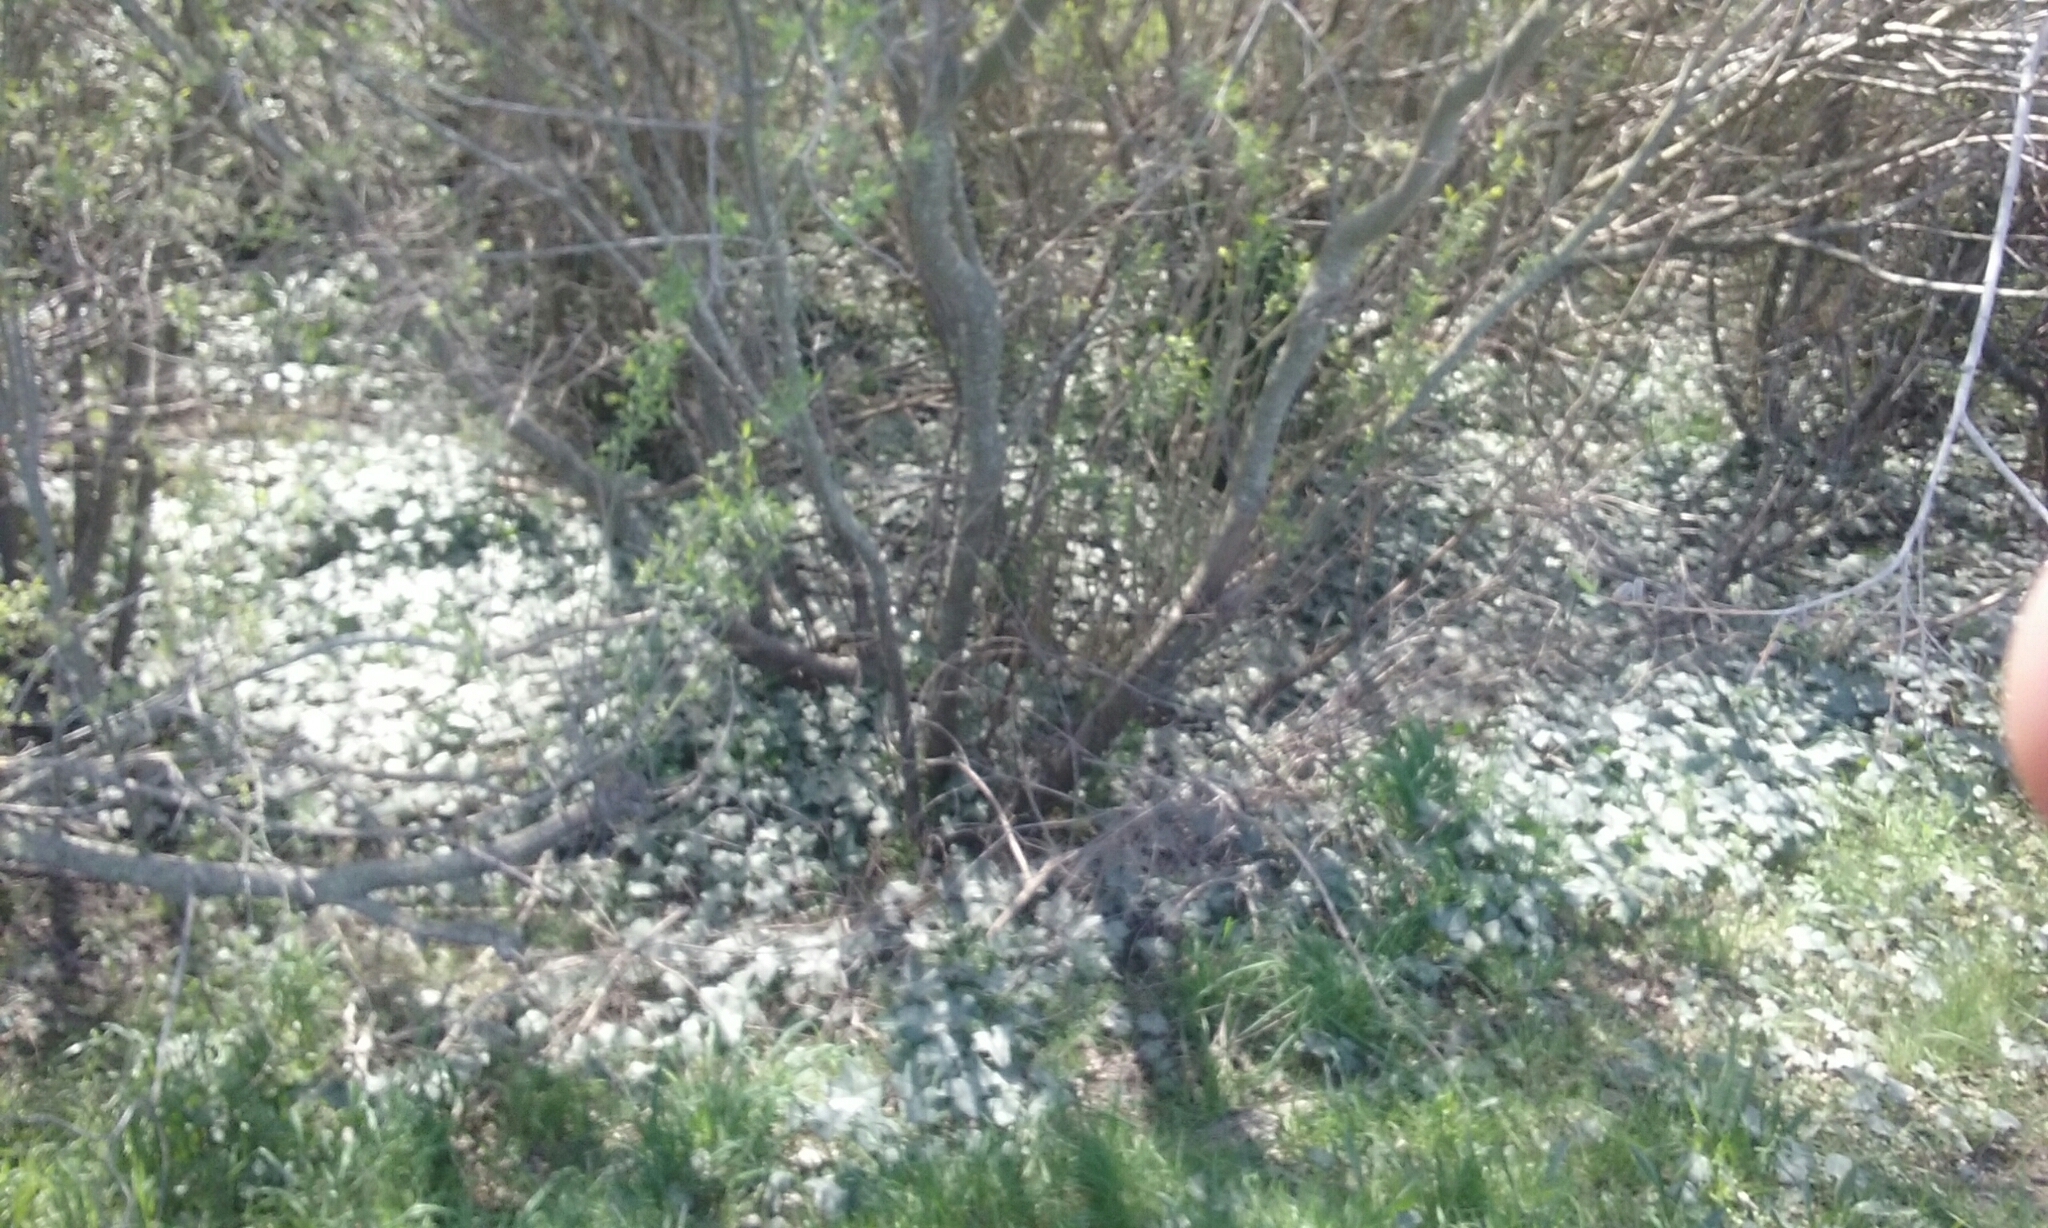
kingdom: Plantae
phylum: Tracheophyta
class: Magnoliopsida
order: Apiales
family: Araliaceae
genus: Hedera
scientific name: Hedera helix
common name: Ivy
